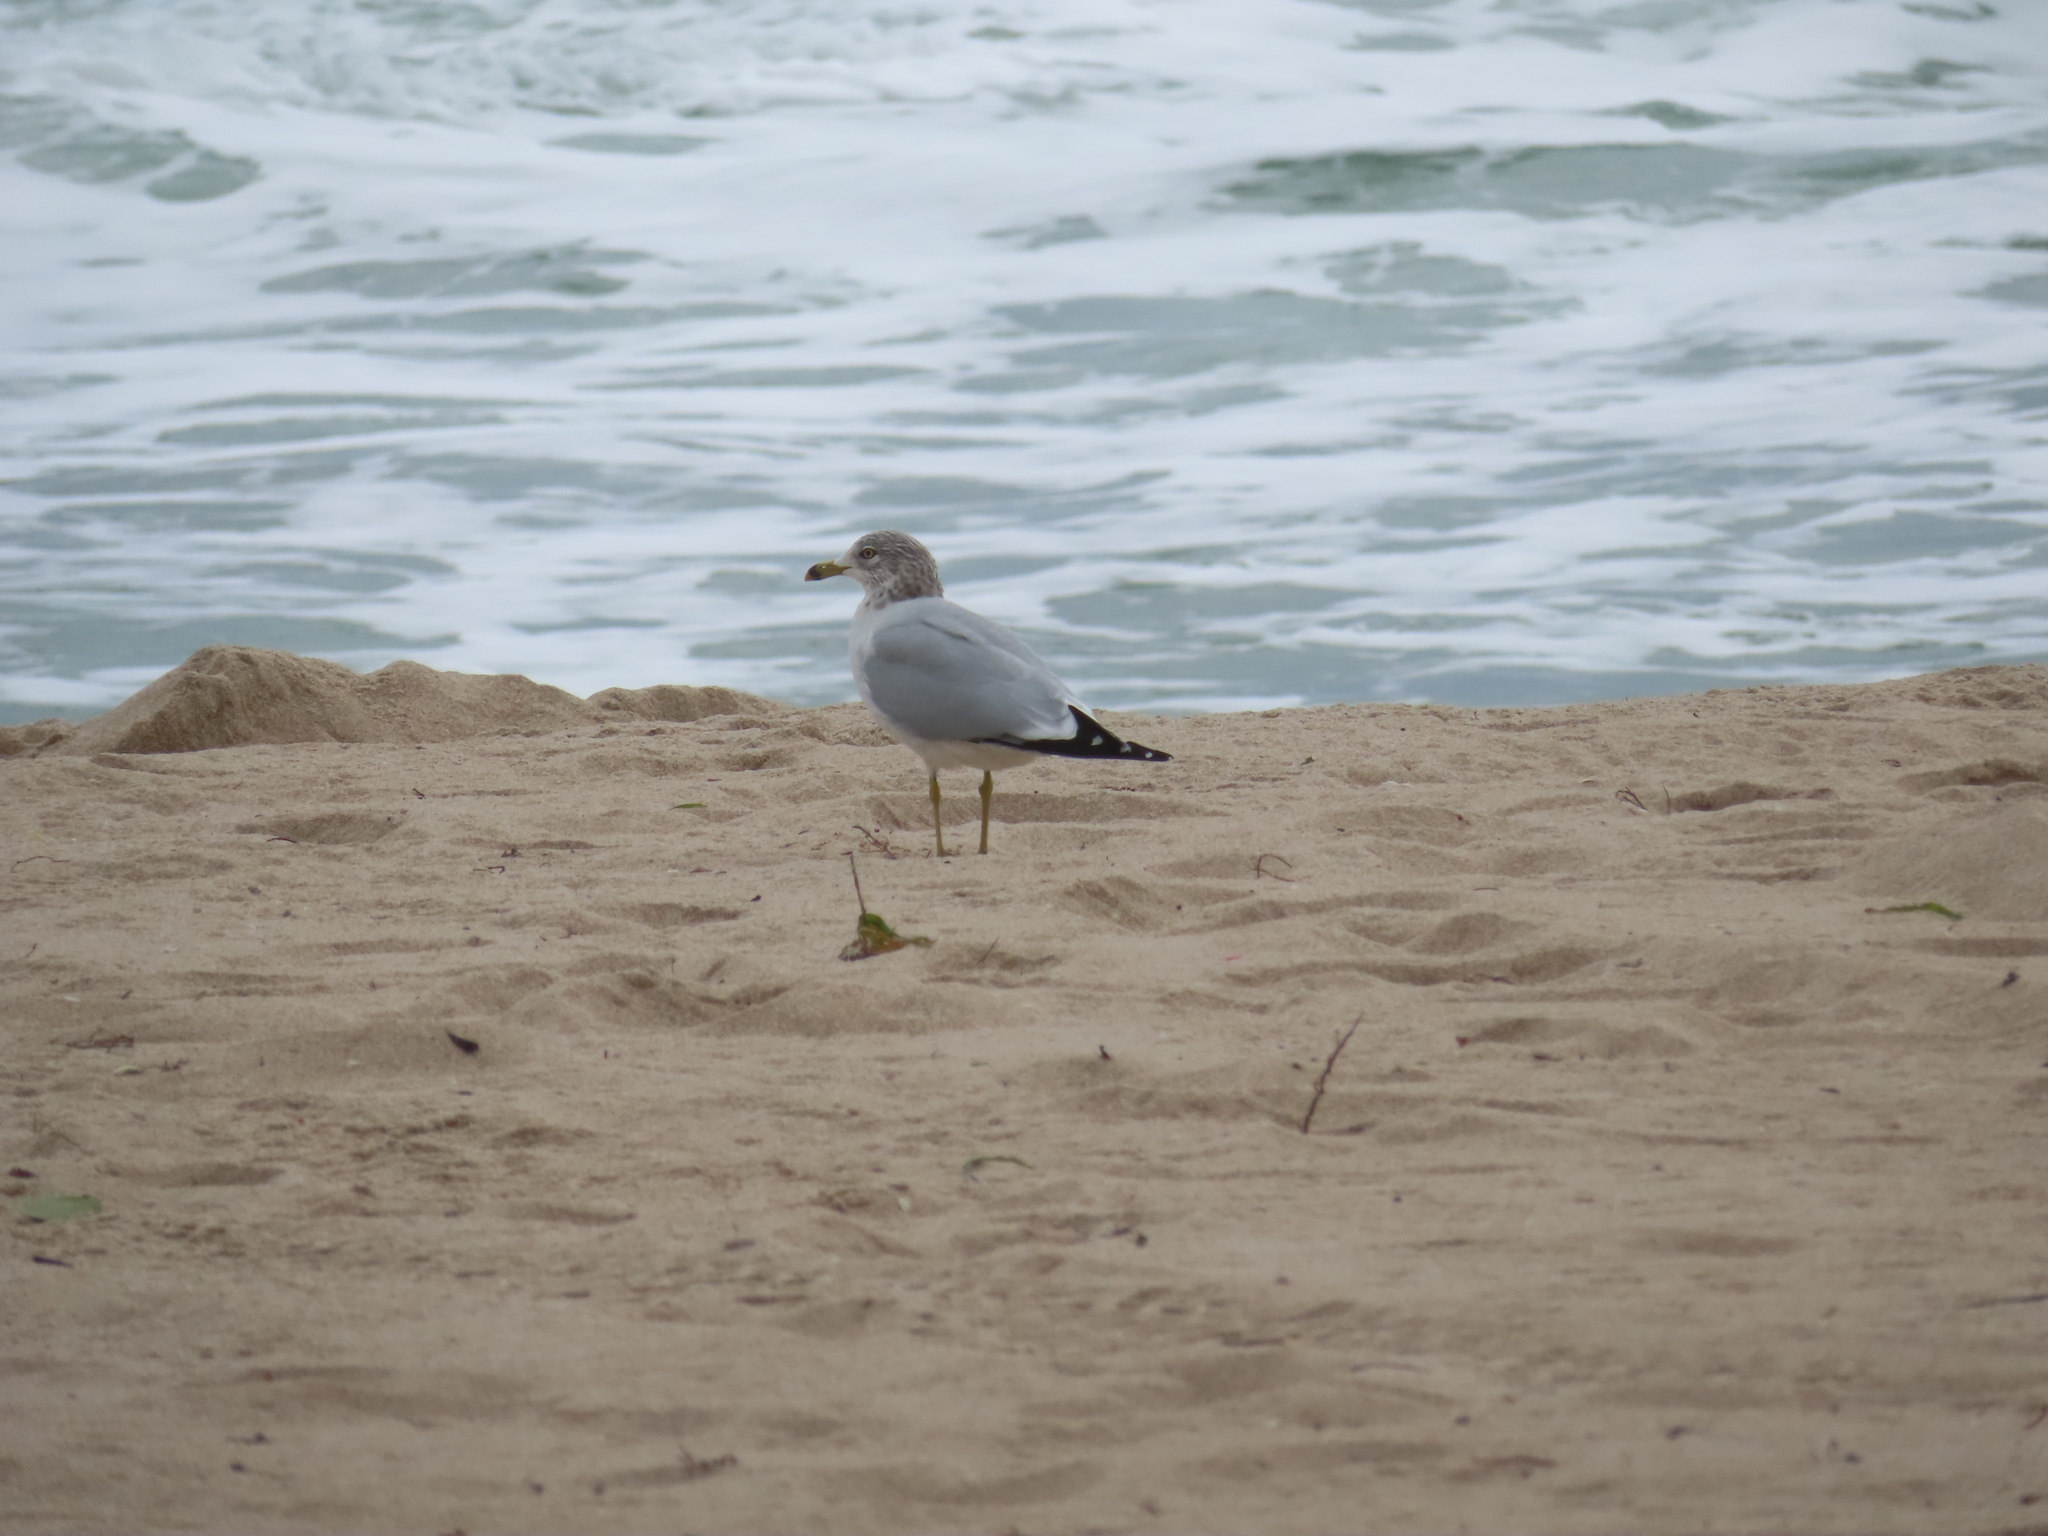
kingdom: Animalia
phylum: Chordata
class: Aves
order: Charadriiformes
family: Laridae
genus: Larus
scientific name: Larus delawarensis
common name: Ring-billed gull
